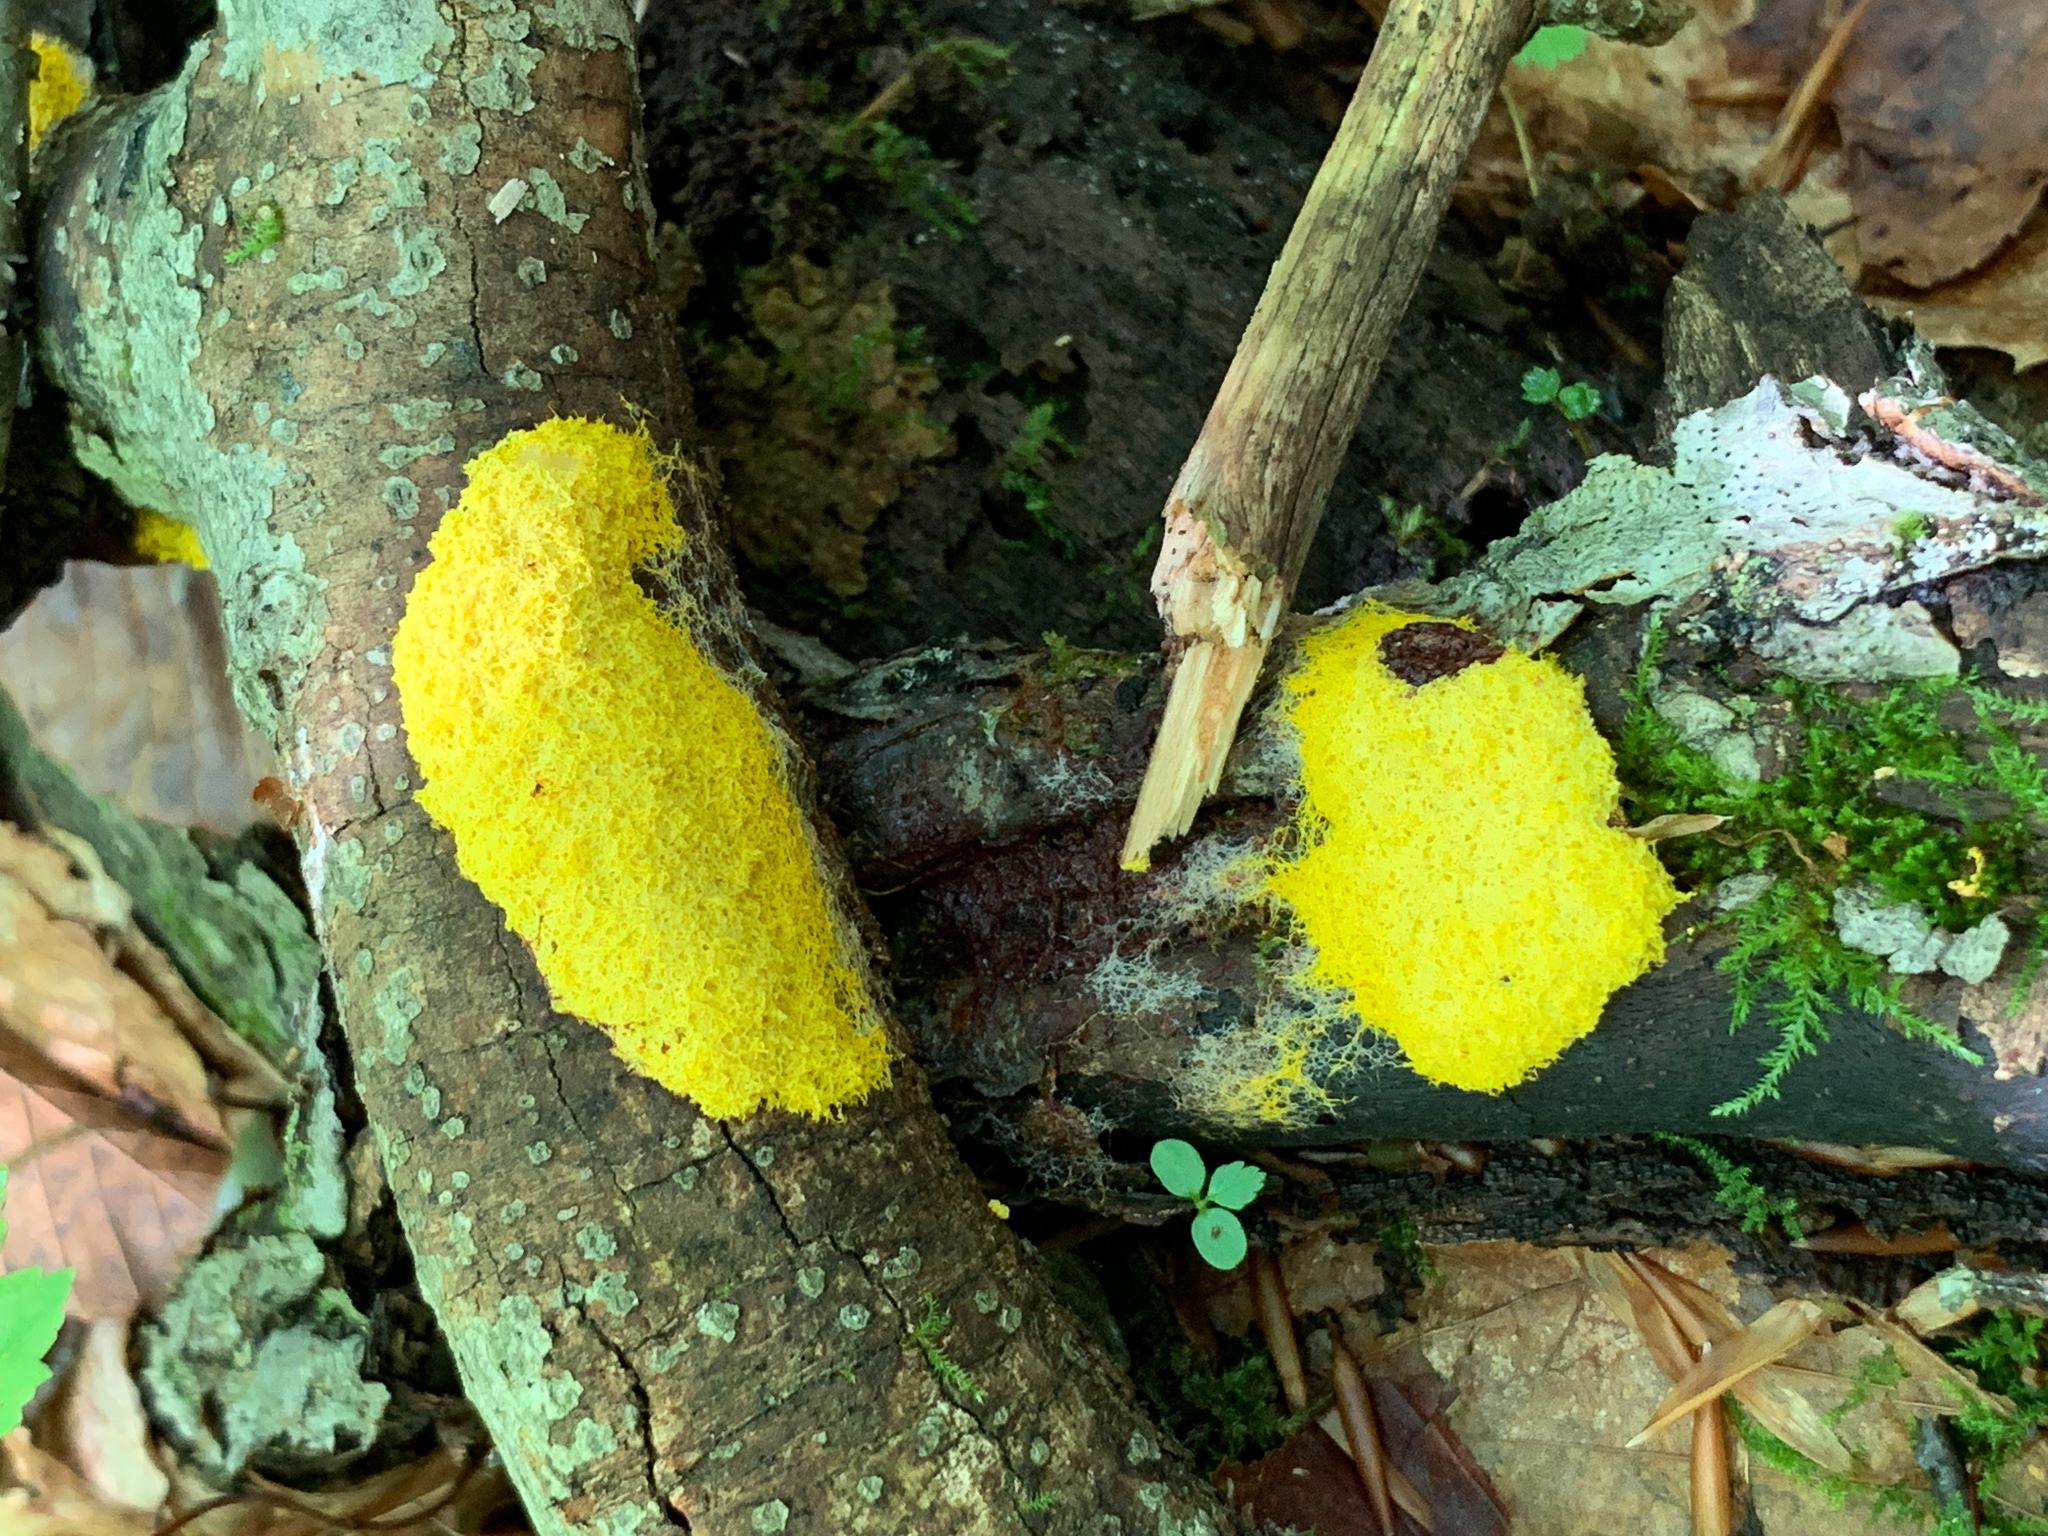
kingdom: Protozoa
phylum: Mycetozoa
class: Myxomycetes
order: Physarales
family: Physaraceae
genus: Fuligo
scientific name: Fuligo septica
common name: Dog vomit slime mold
